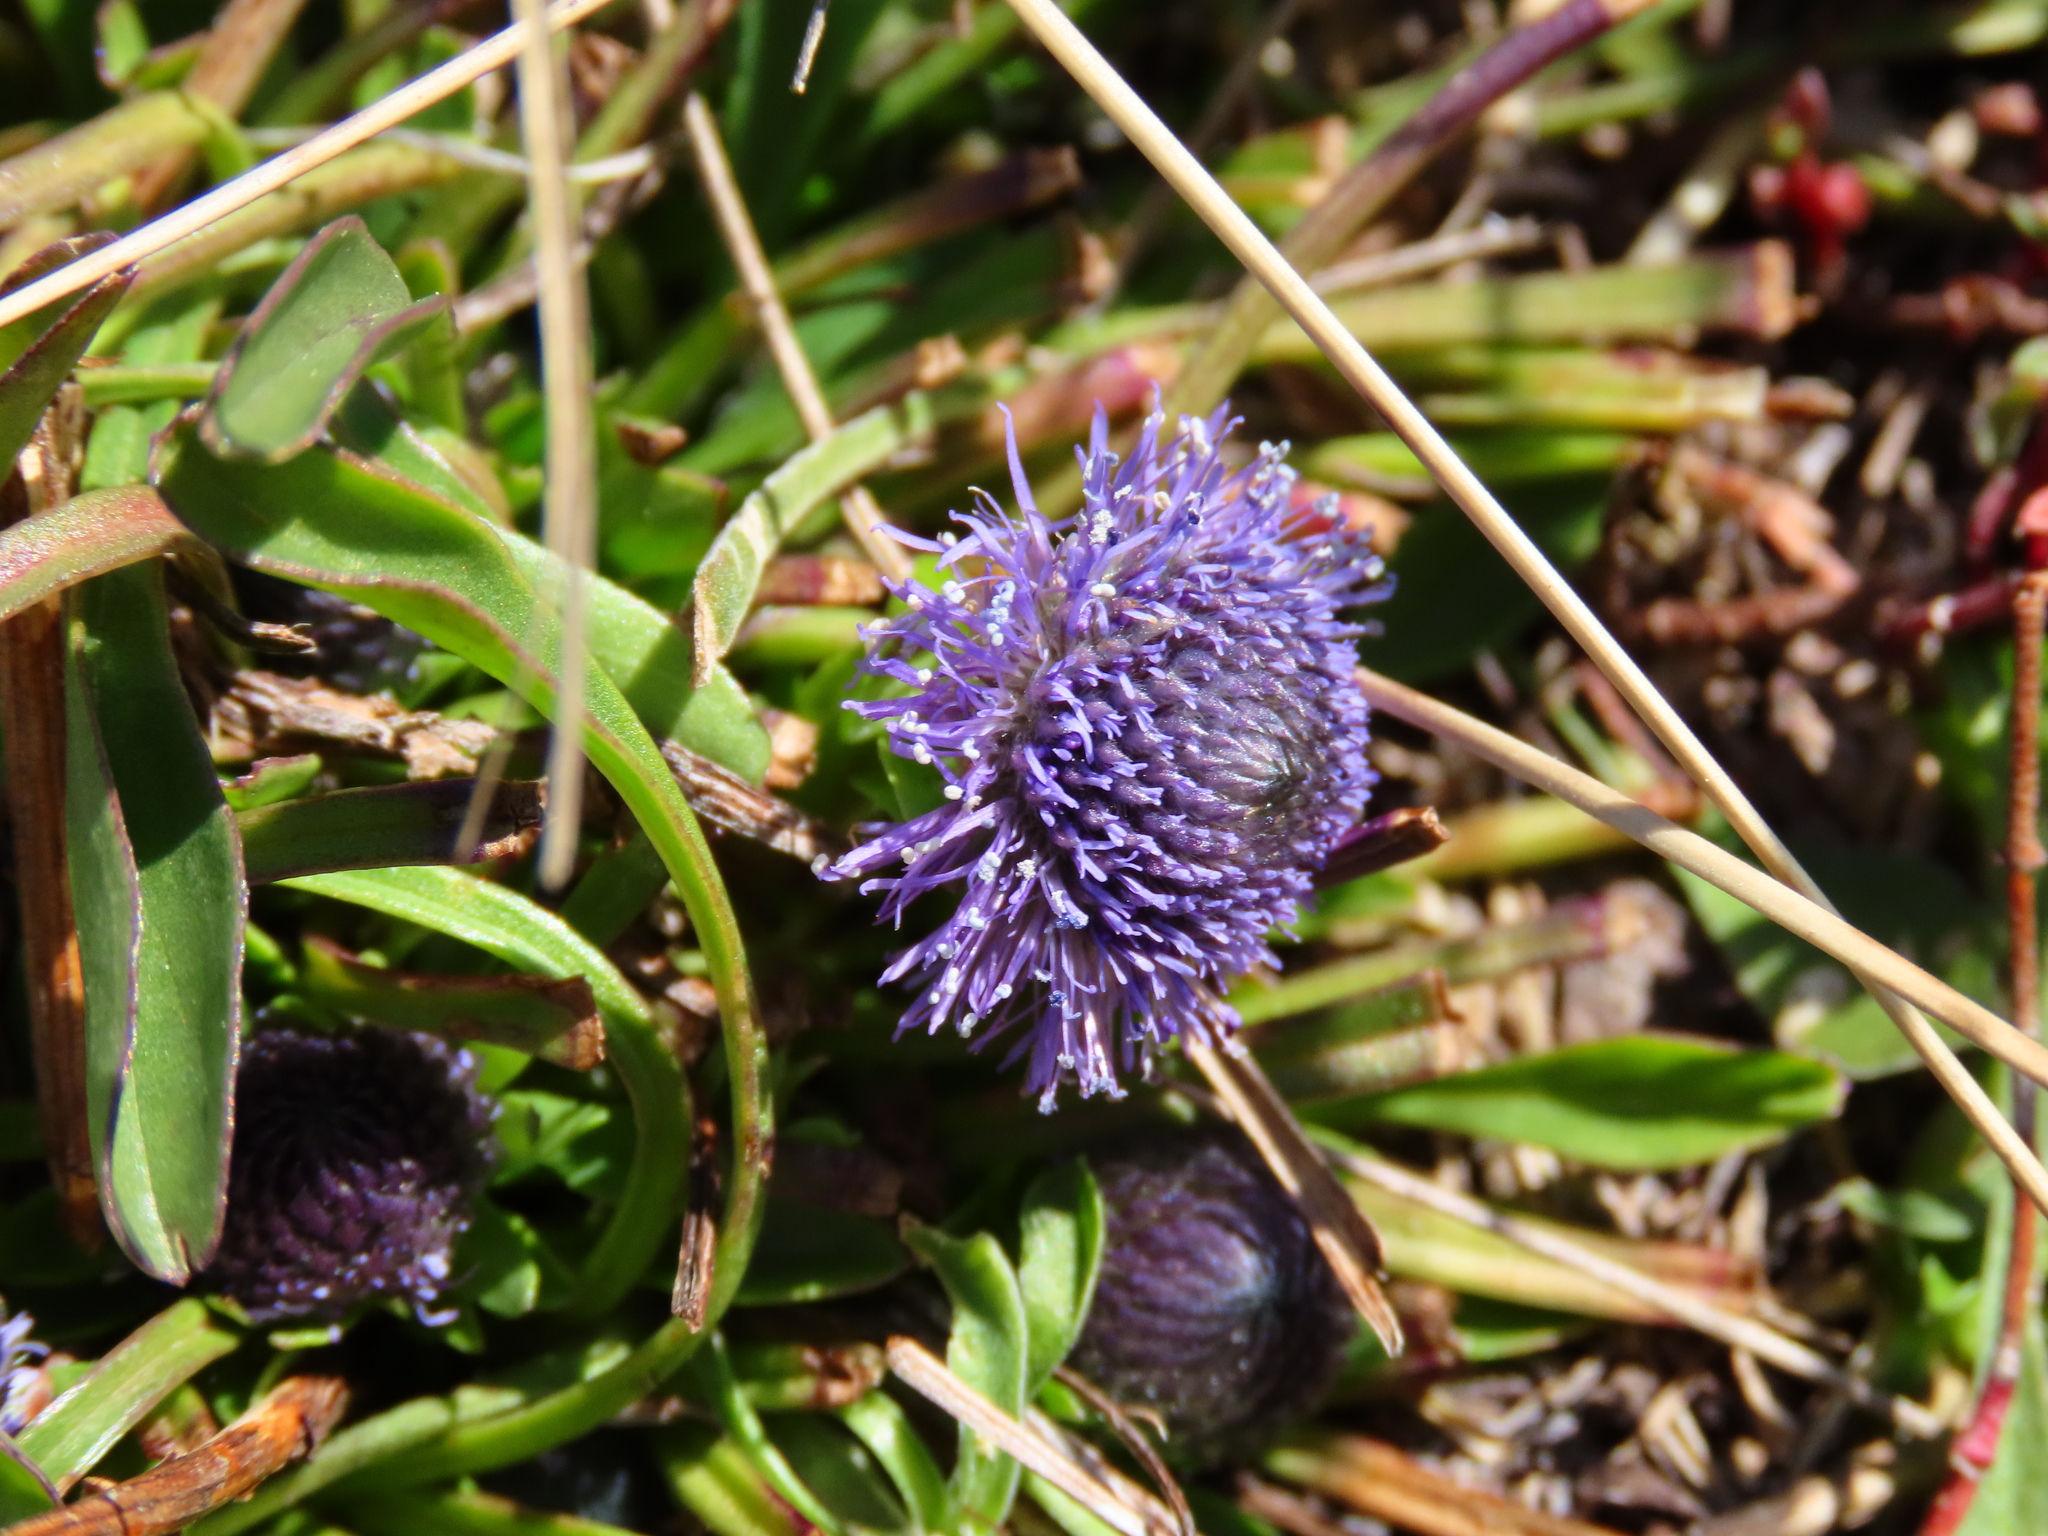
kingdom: Plantae
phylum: Tracheophyta
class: Magnoliopsida
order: Lamiales
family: Plantaginaceae
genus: Globularia
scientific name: Globularia bisnagarica
